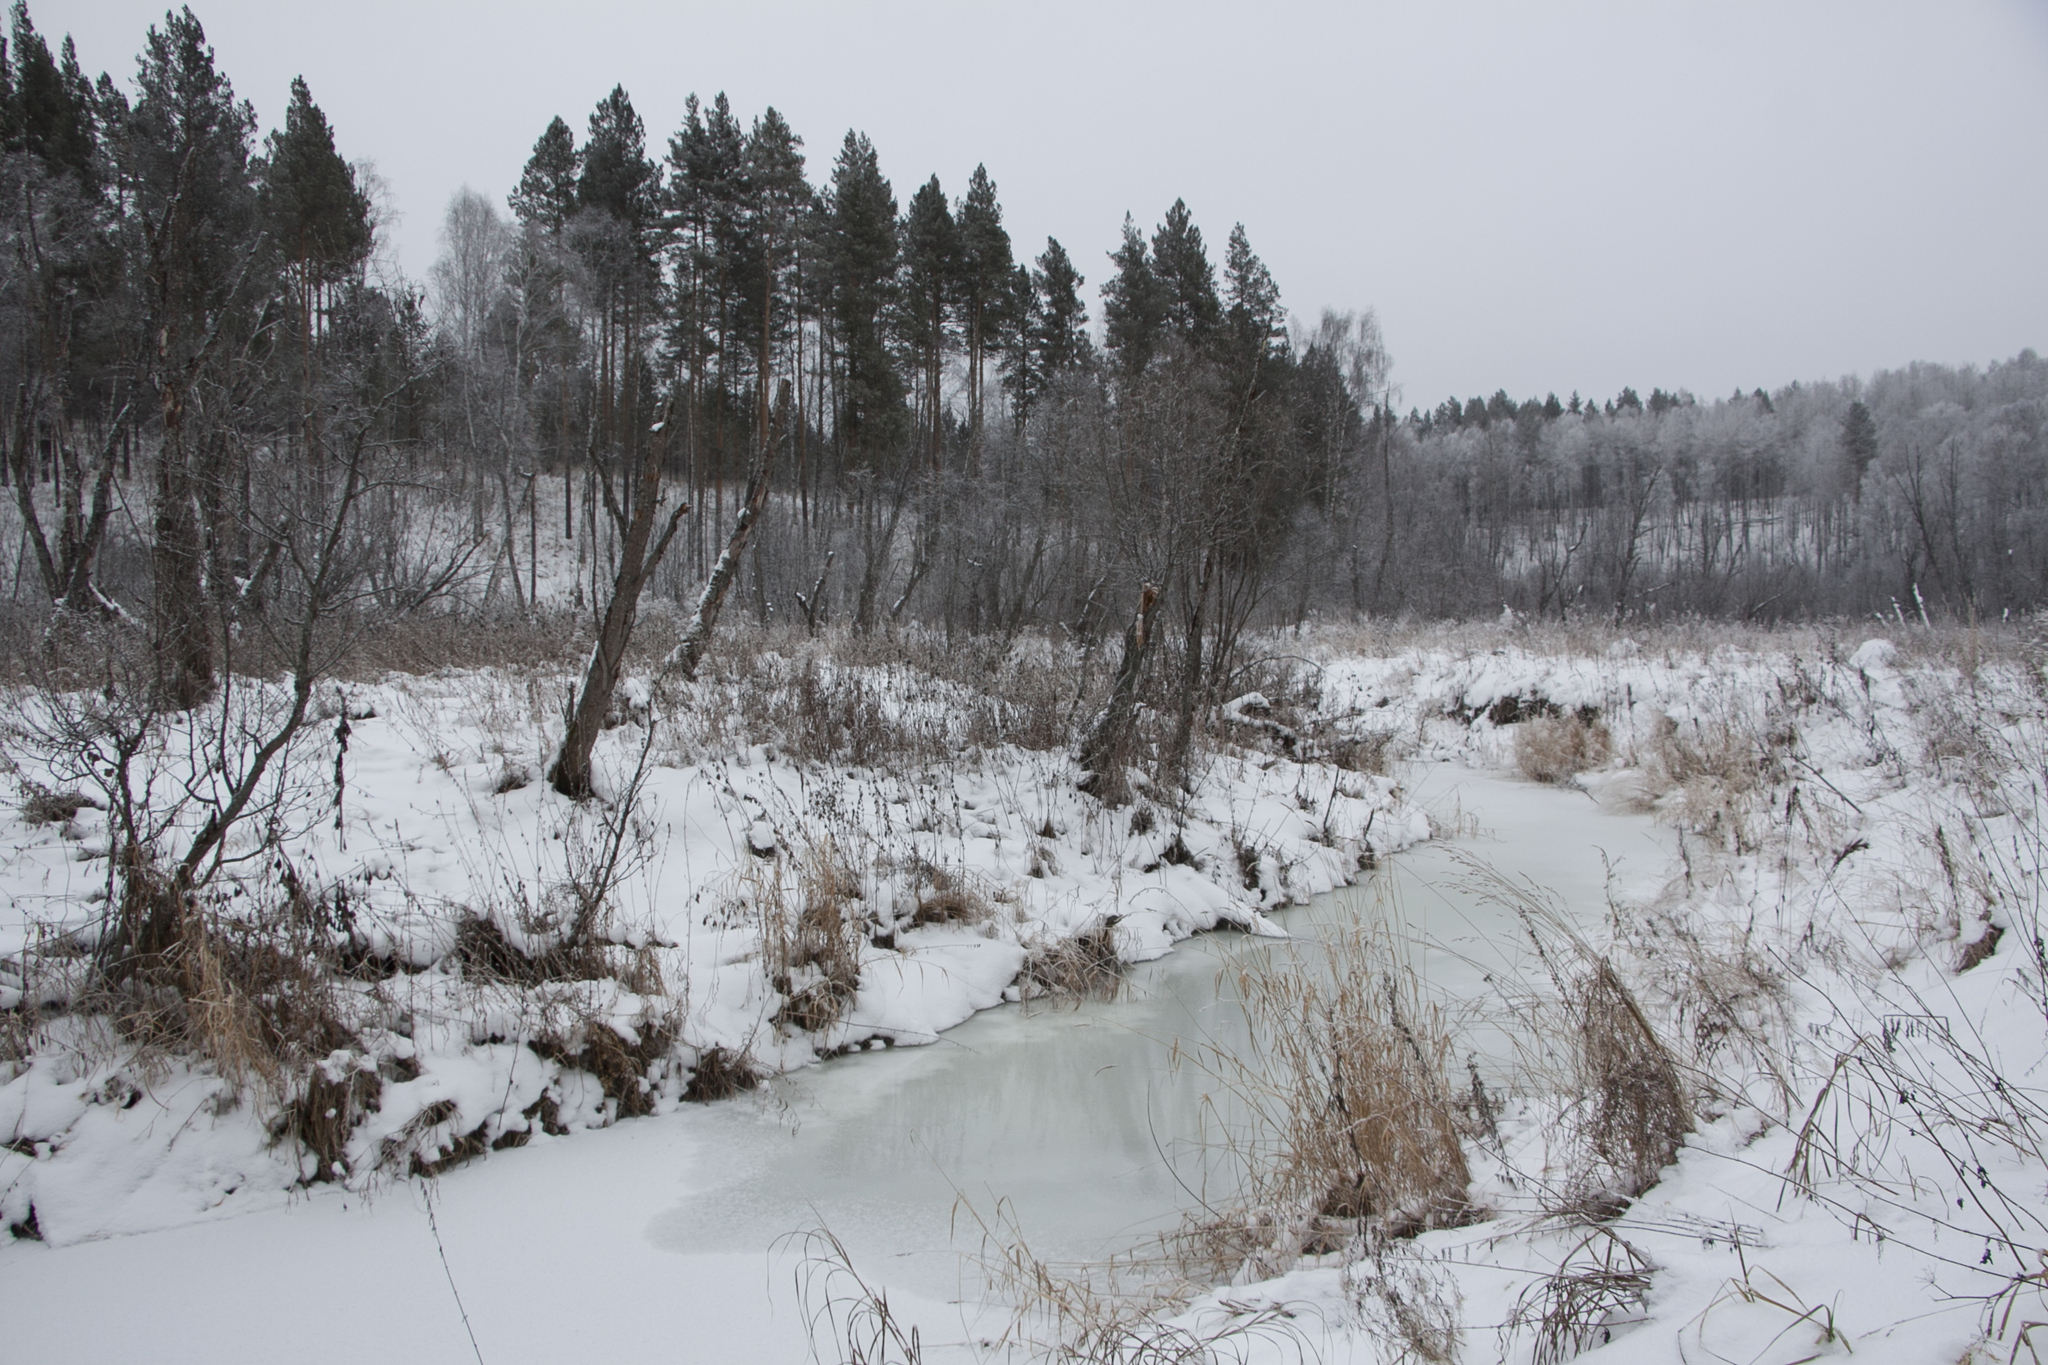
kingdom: Plantae
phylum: Tracheophyta
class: Pinopsida
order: Pinales
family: Pinaceae
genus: Pinus
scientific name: Pinus sylvestris
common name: Scots pine
